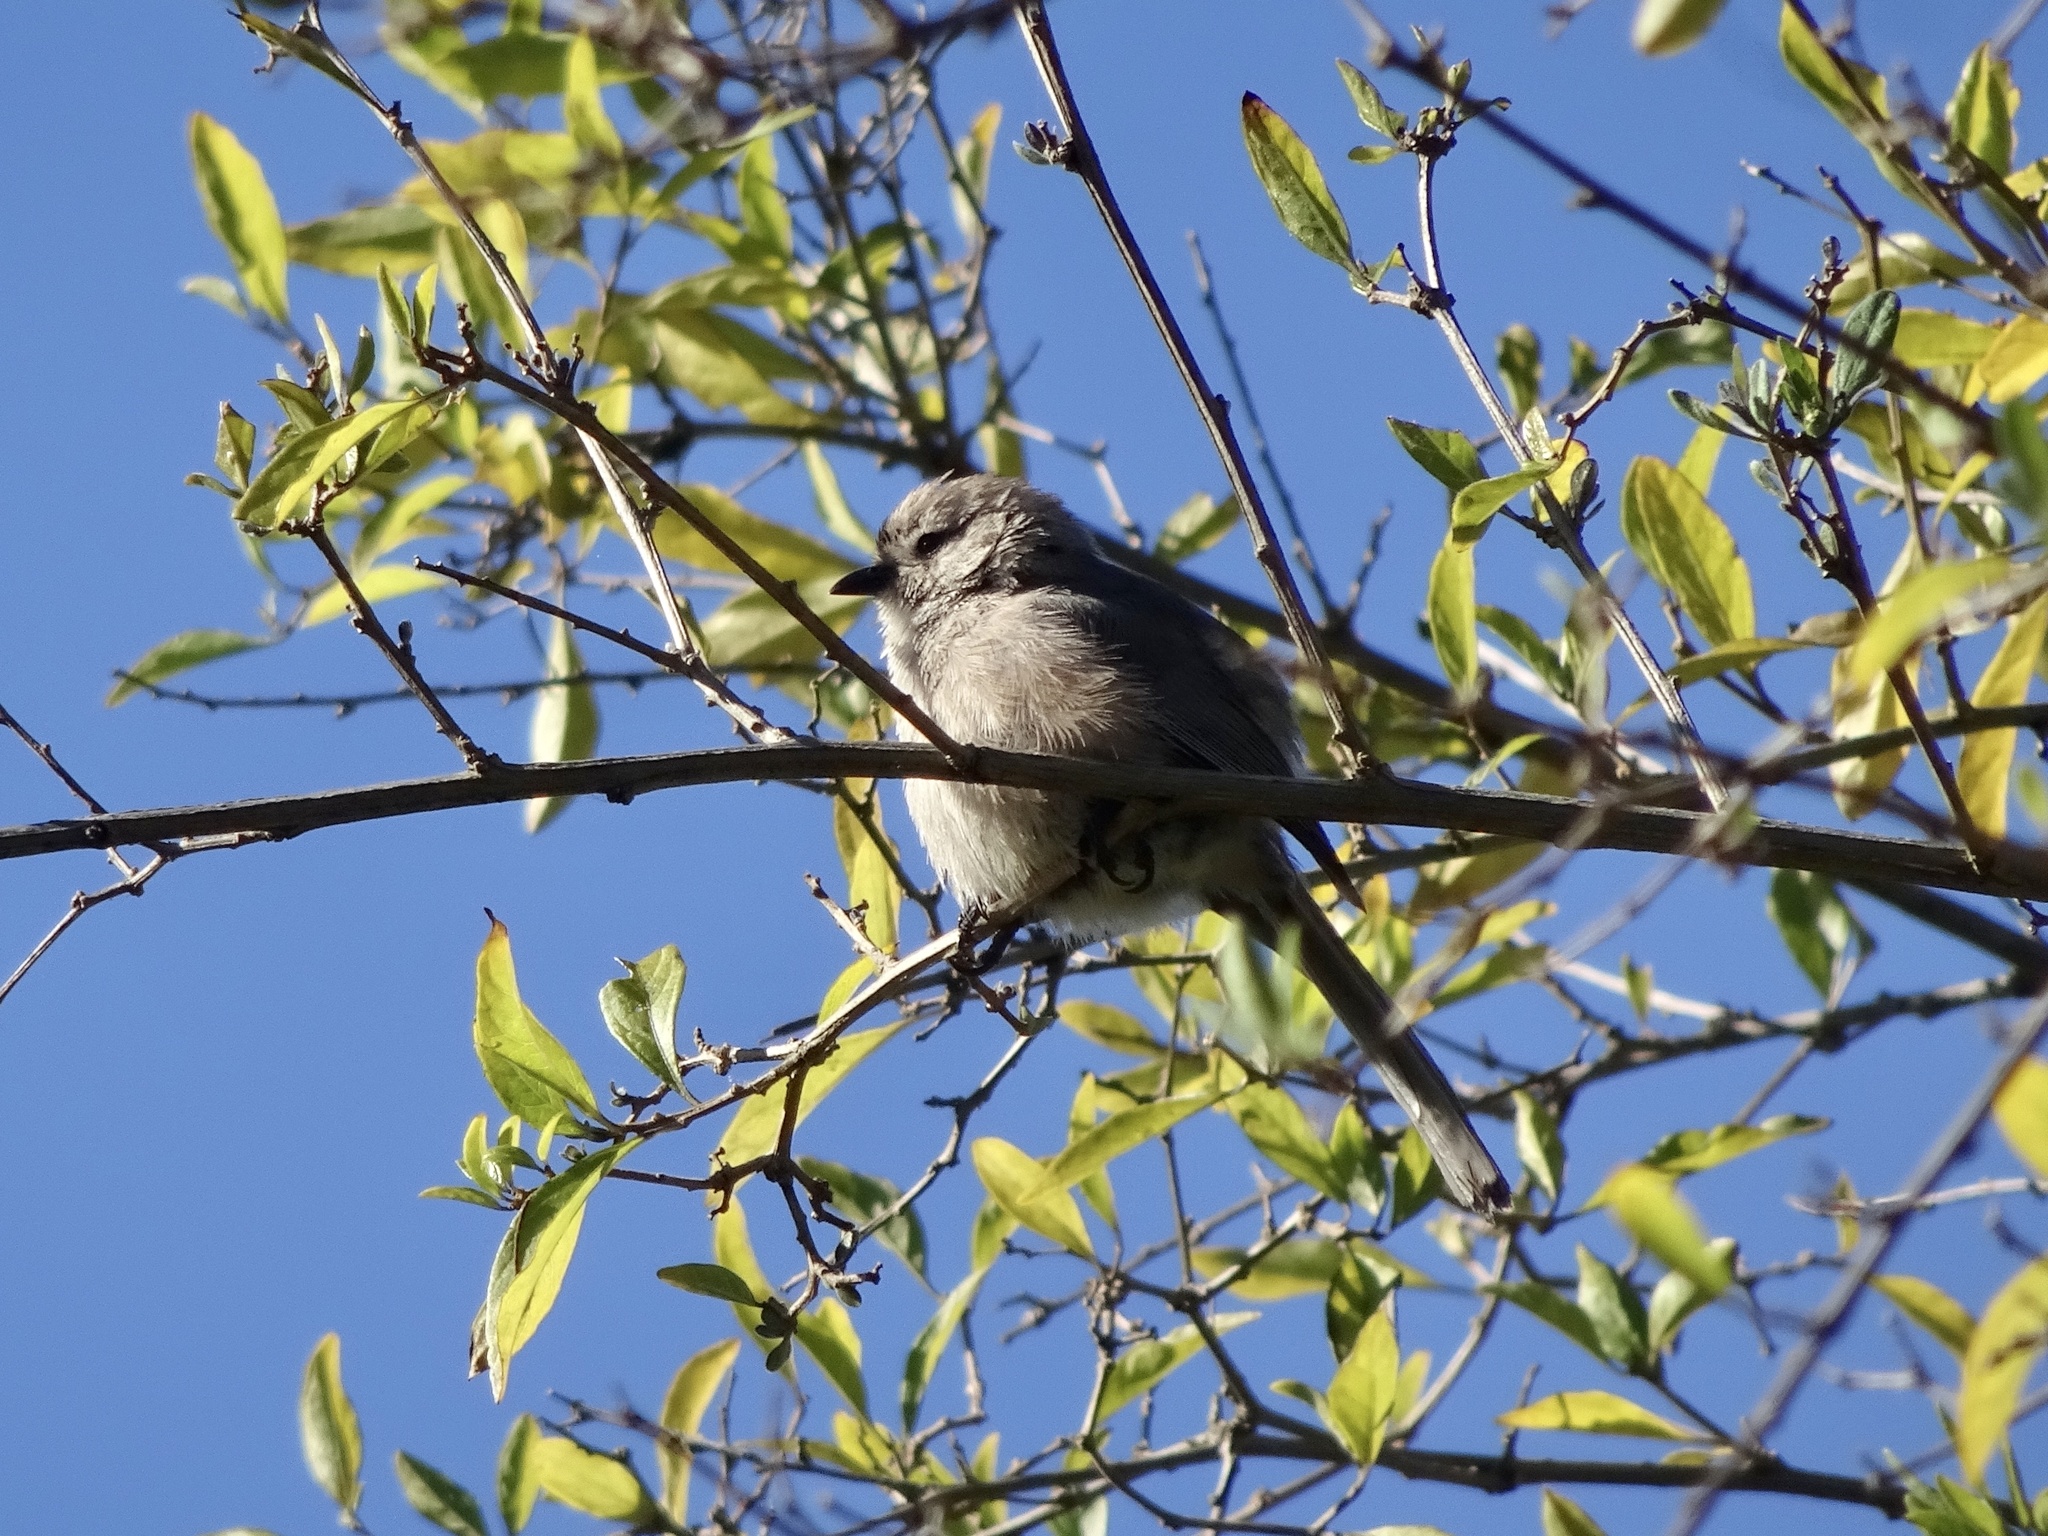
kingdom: Animalia
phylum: Chordata
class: Aves
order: Passeriformes
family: Aegithalidae
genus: Psaltriparus
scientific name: Psaltriparus minimus
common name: American bushtit
